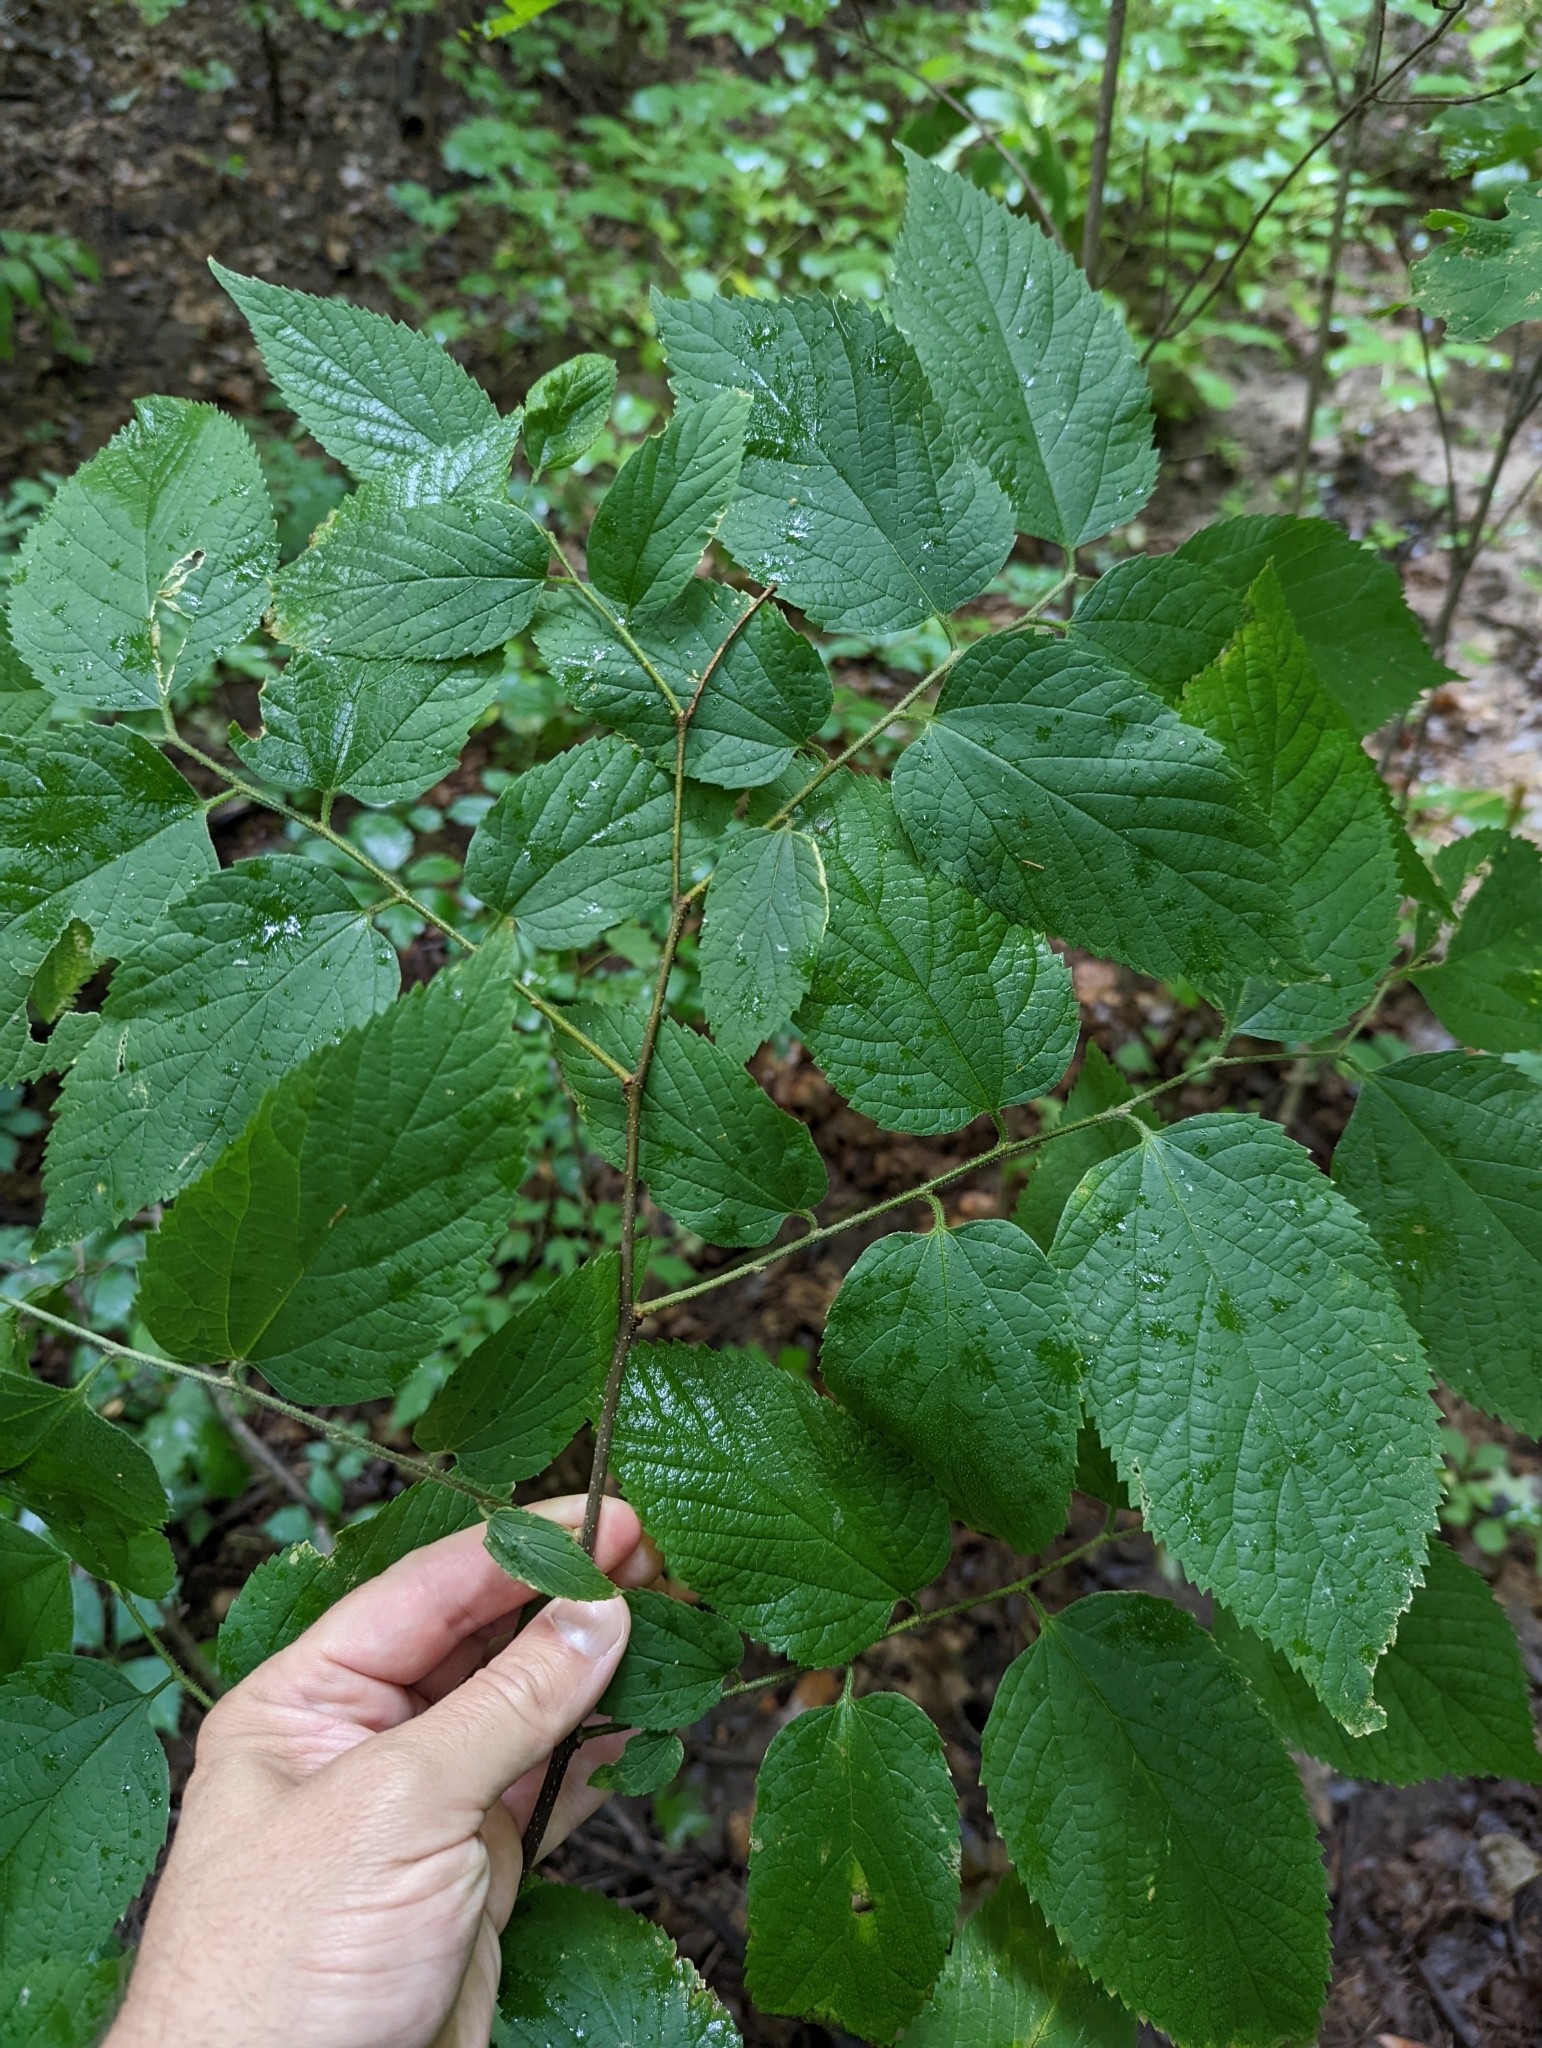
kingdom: Plantae
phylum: Tracheophyta
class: Magnoliopsida
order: Rosales
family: Cannabaceae
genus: Celtis
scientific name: Celtis occidentalis
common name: Common hackberry
